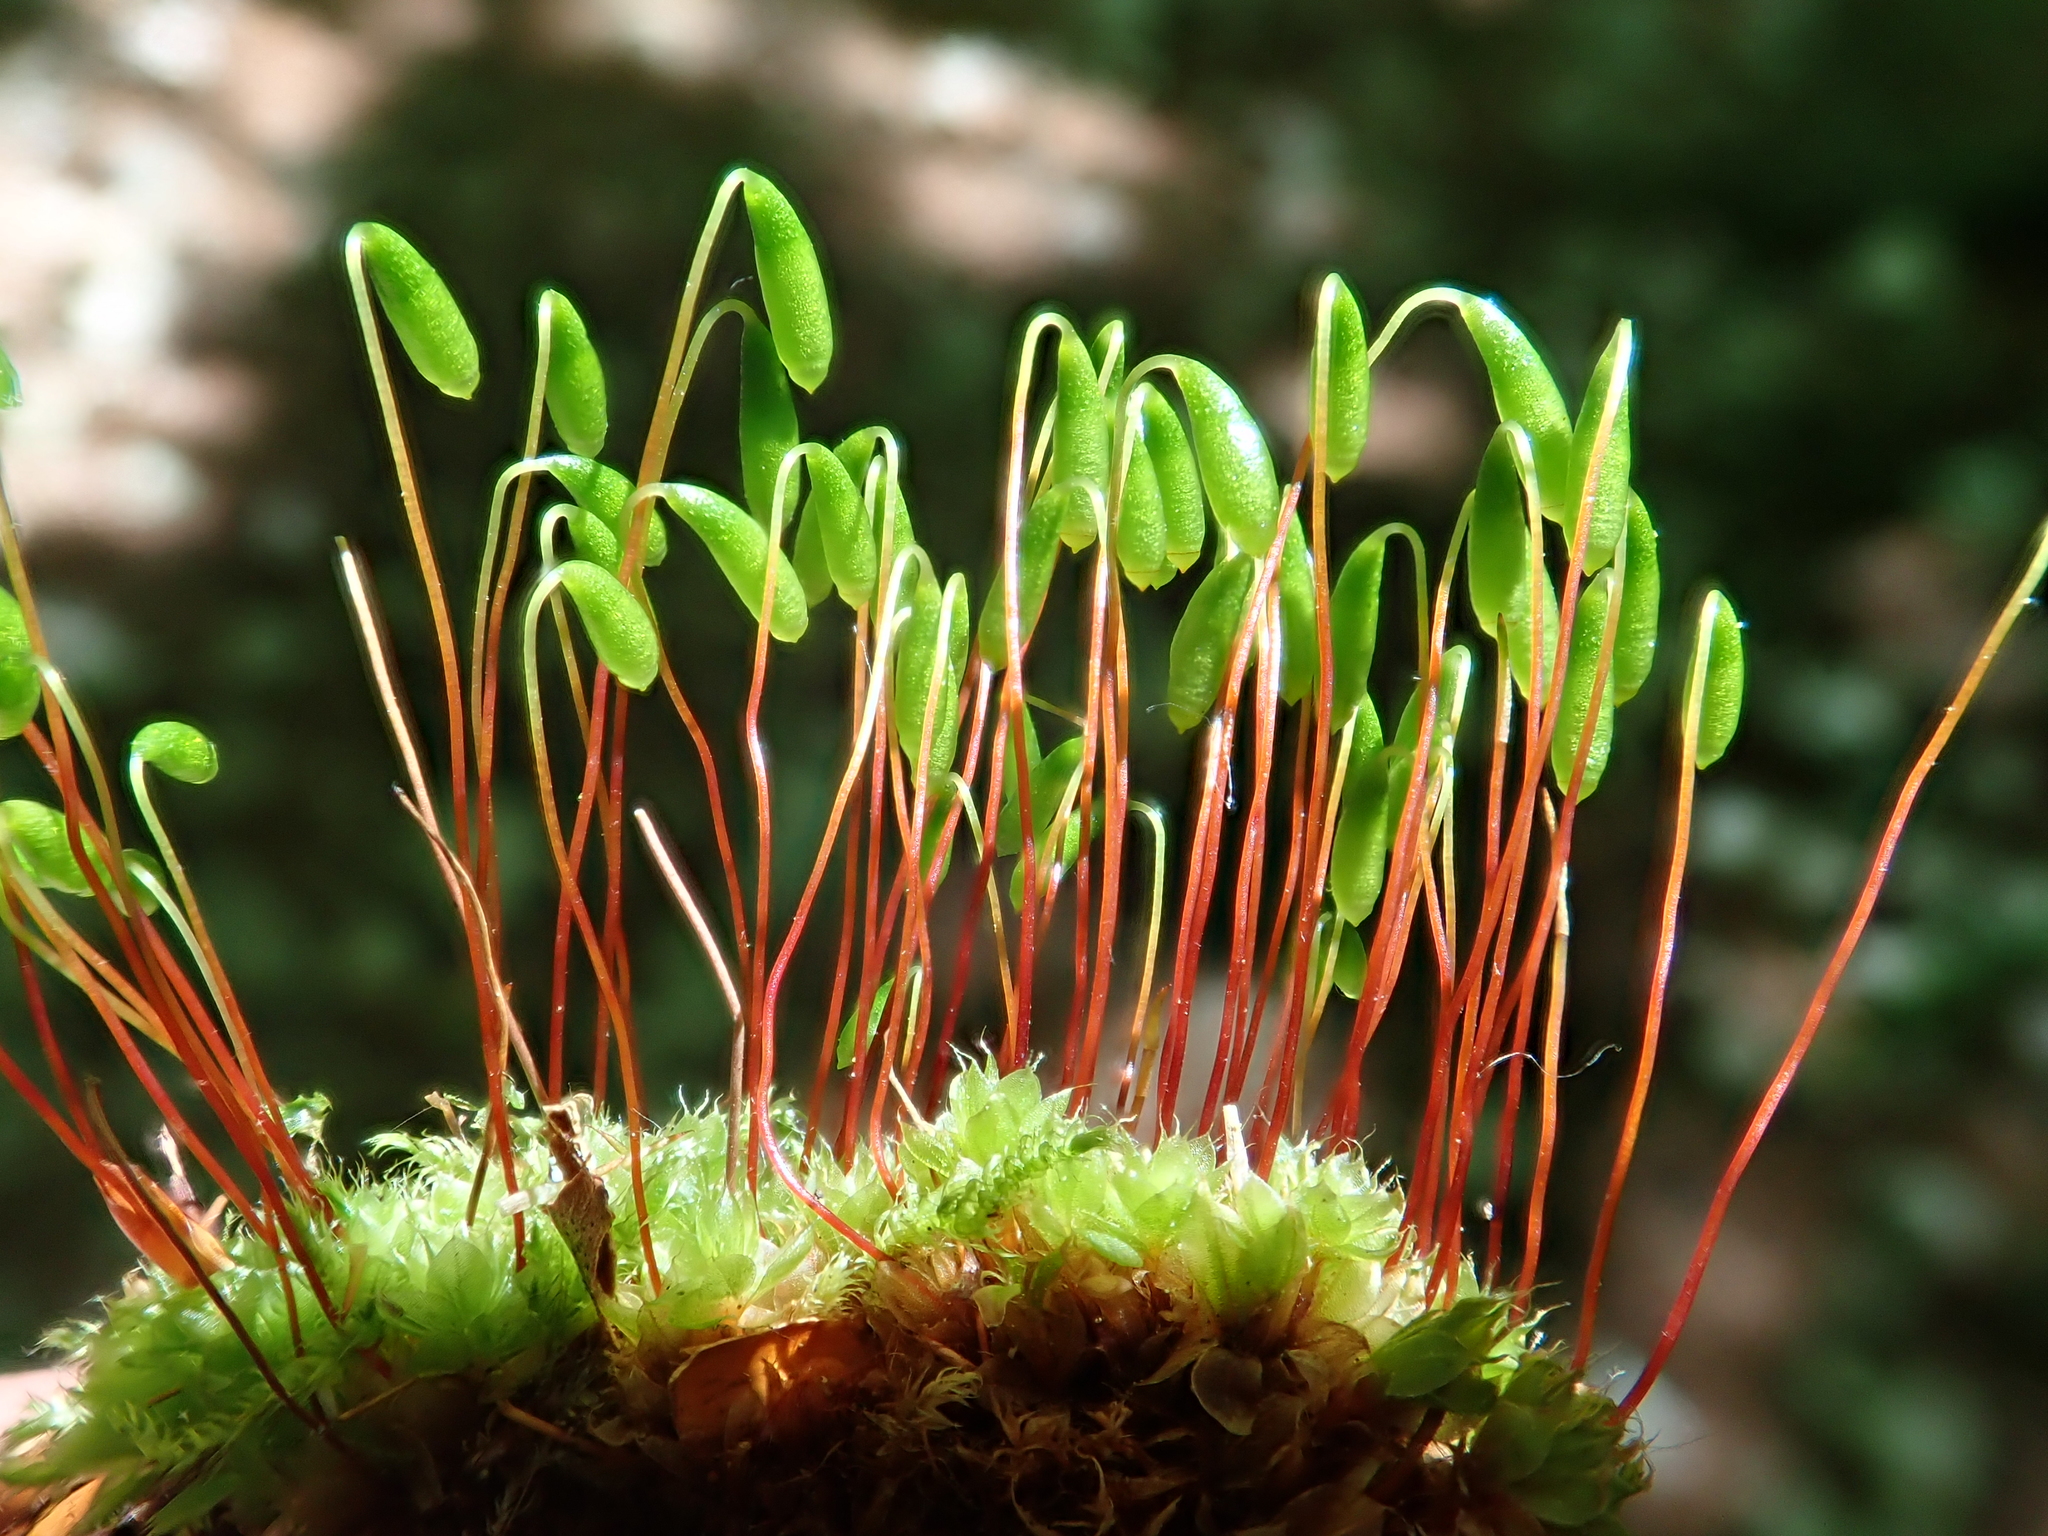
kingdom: Plantae
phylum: Bryophyta
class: Bryopsida
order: Bryales
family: Bryaceae
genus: Rosulabryum
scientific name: Rosulabryum capillare
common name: Capillary thread-moss
